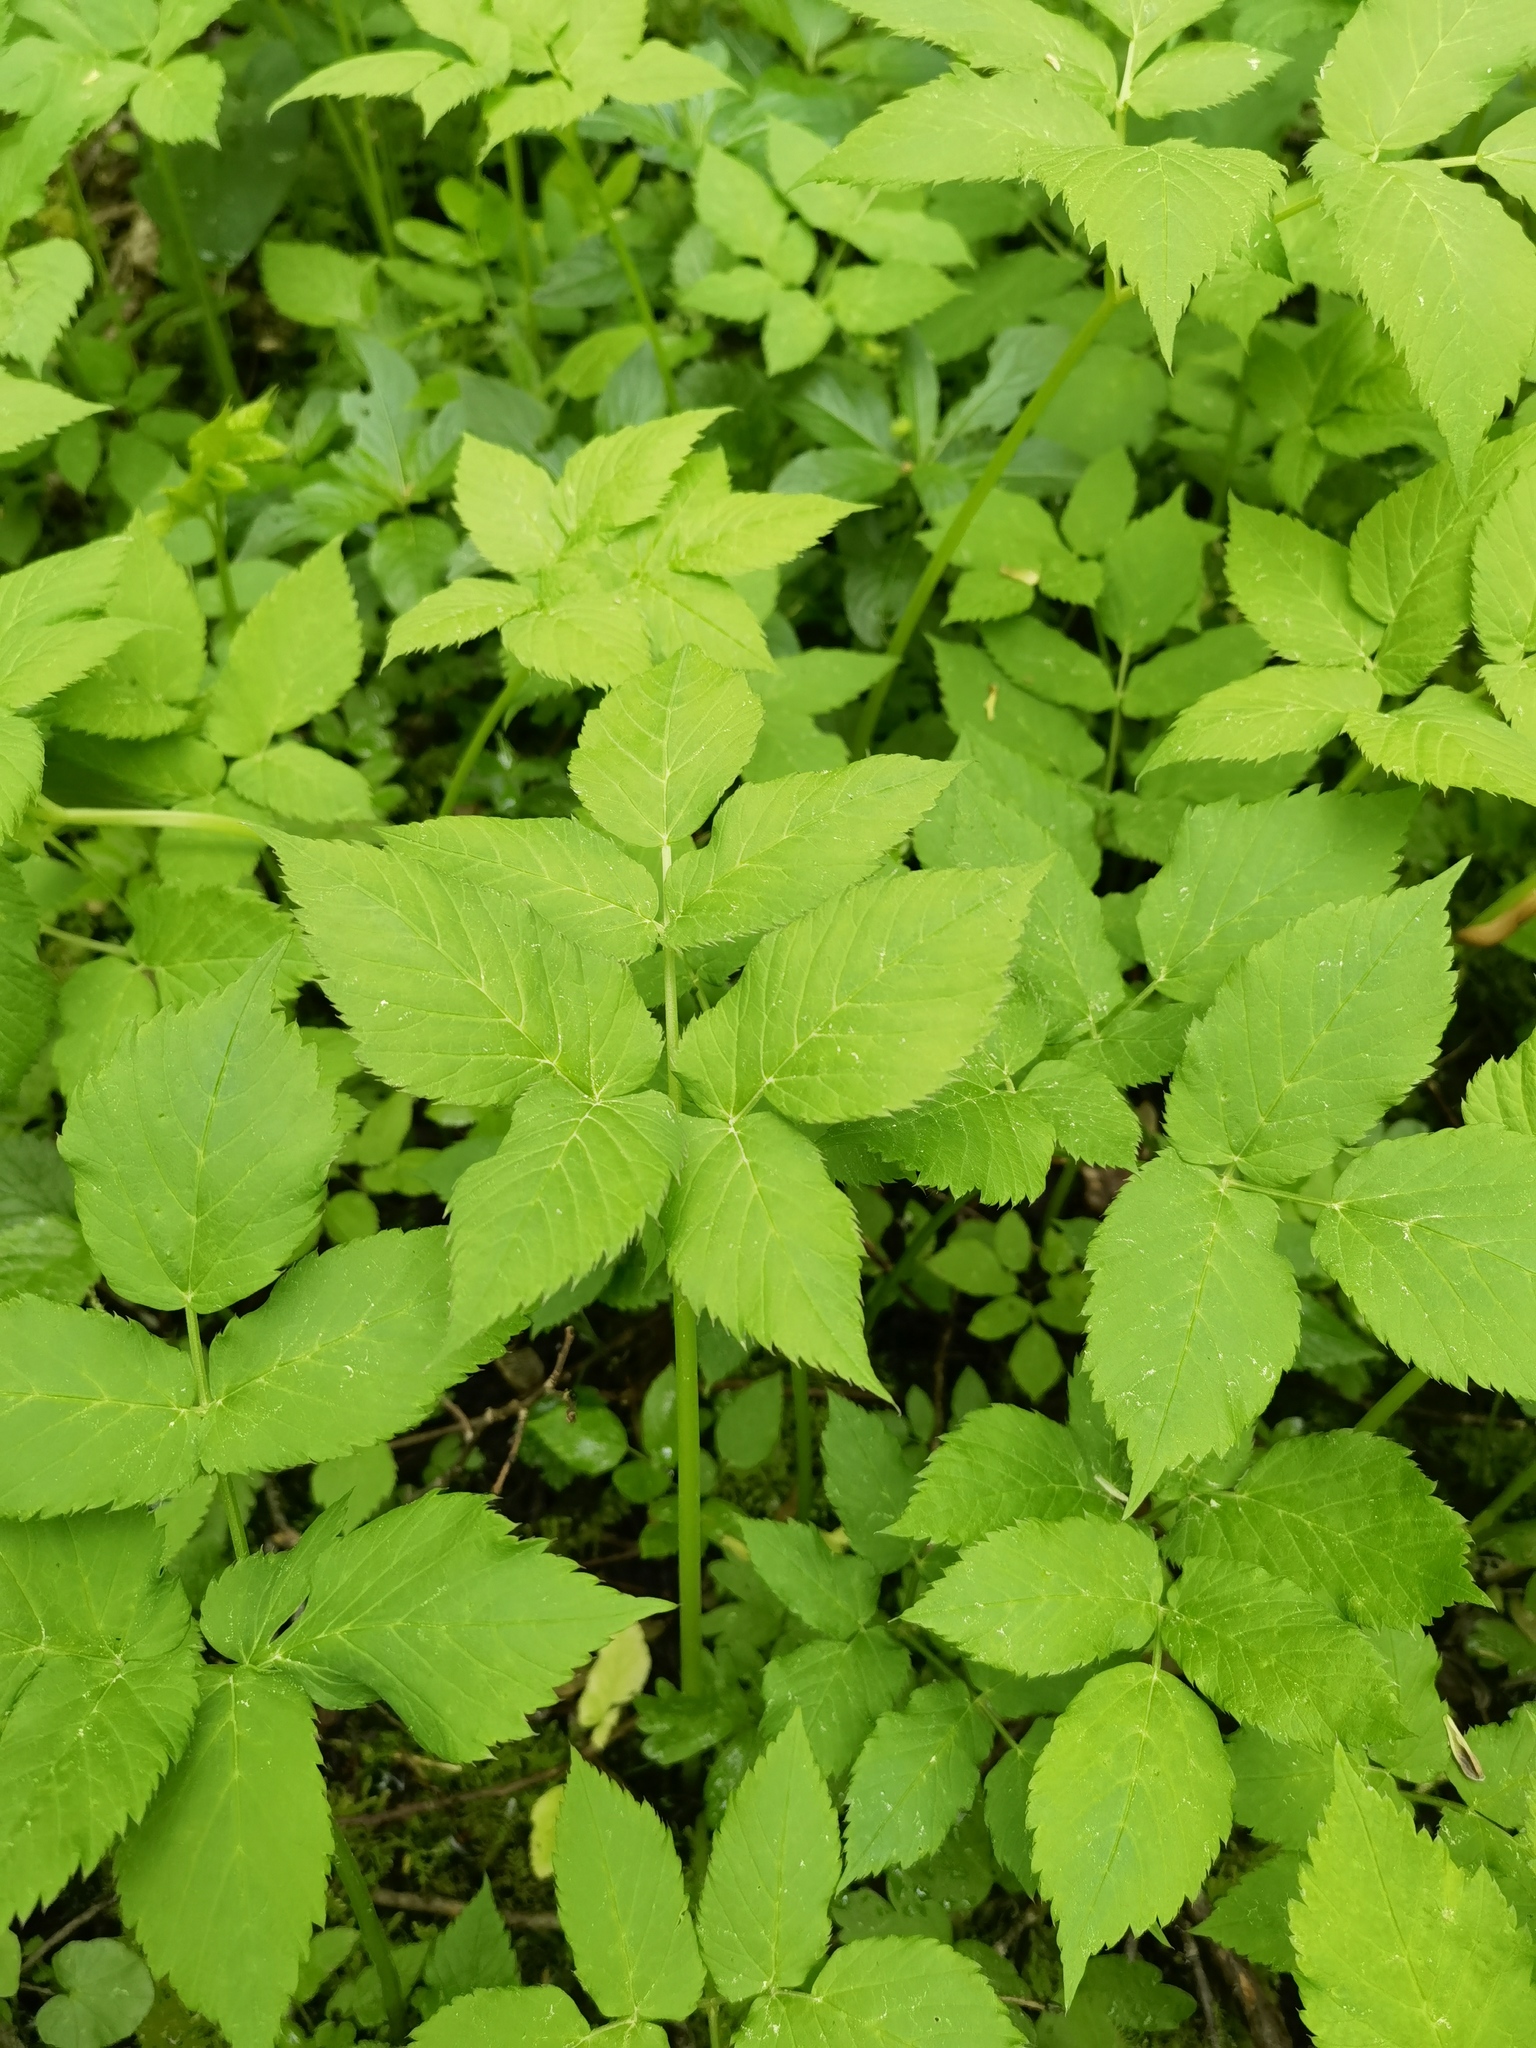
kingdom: Plantae
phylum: Tracheophyta
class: Magnoliopsida
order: Apiales
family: Apiaceae
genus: Aegopodium
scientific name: Aegopodium podagraria
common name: Ground-elder
